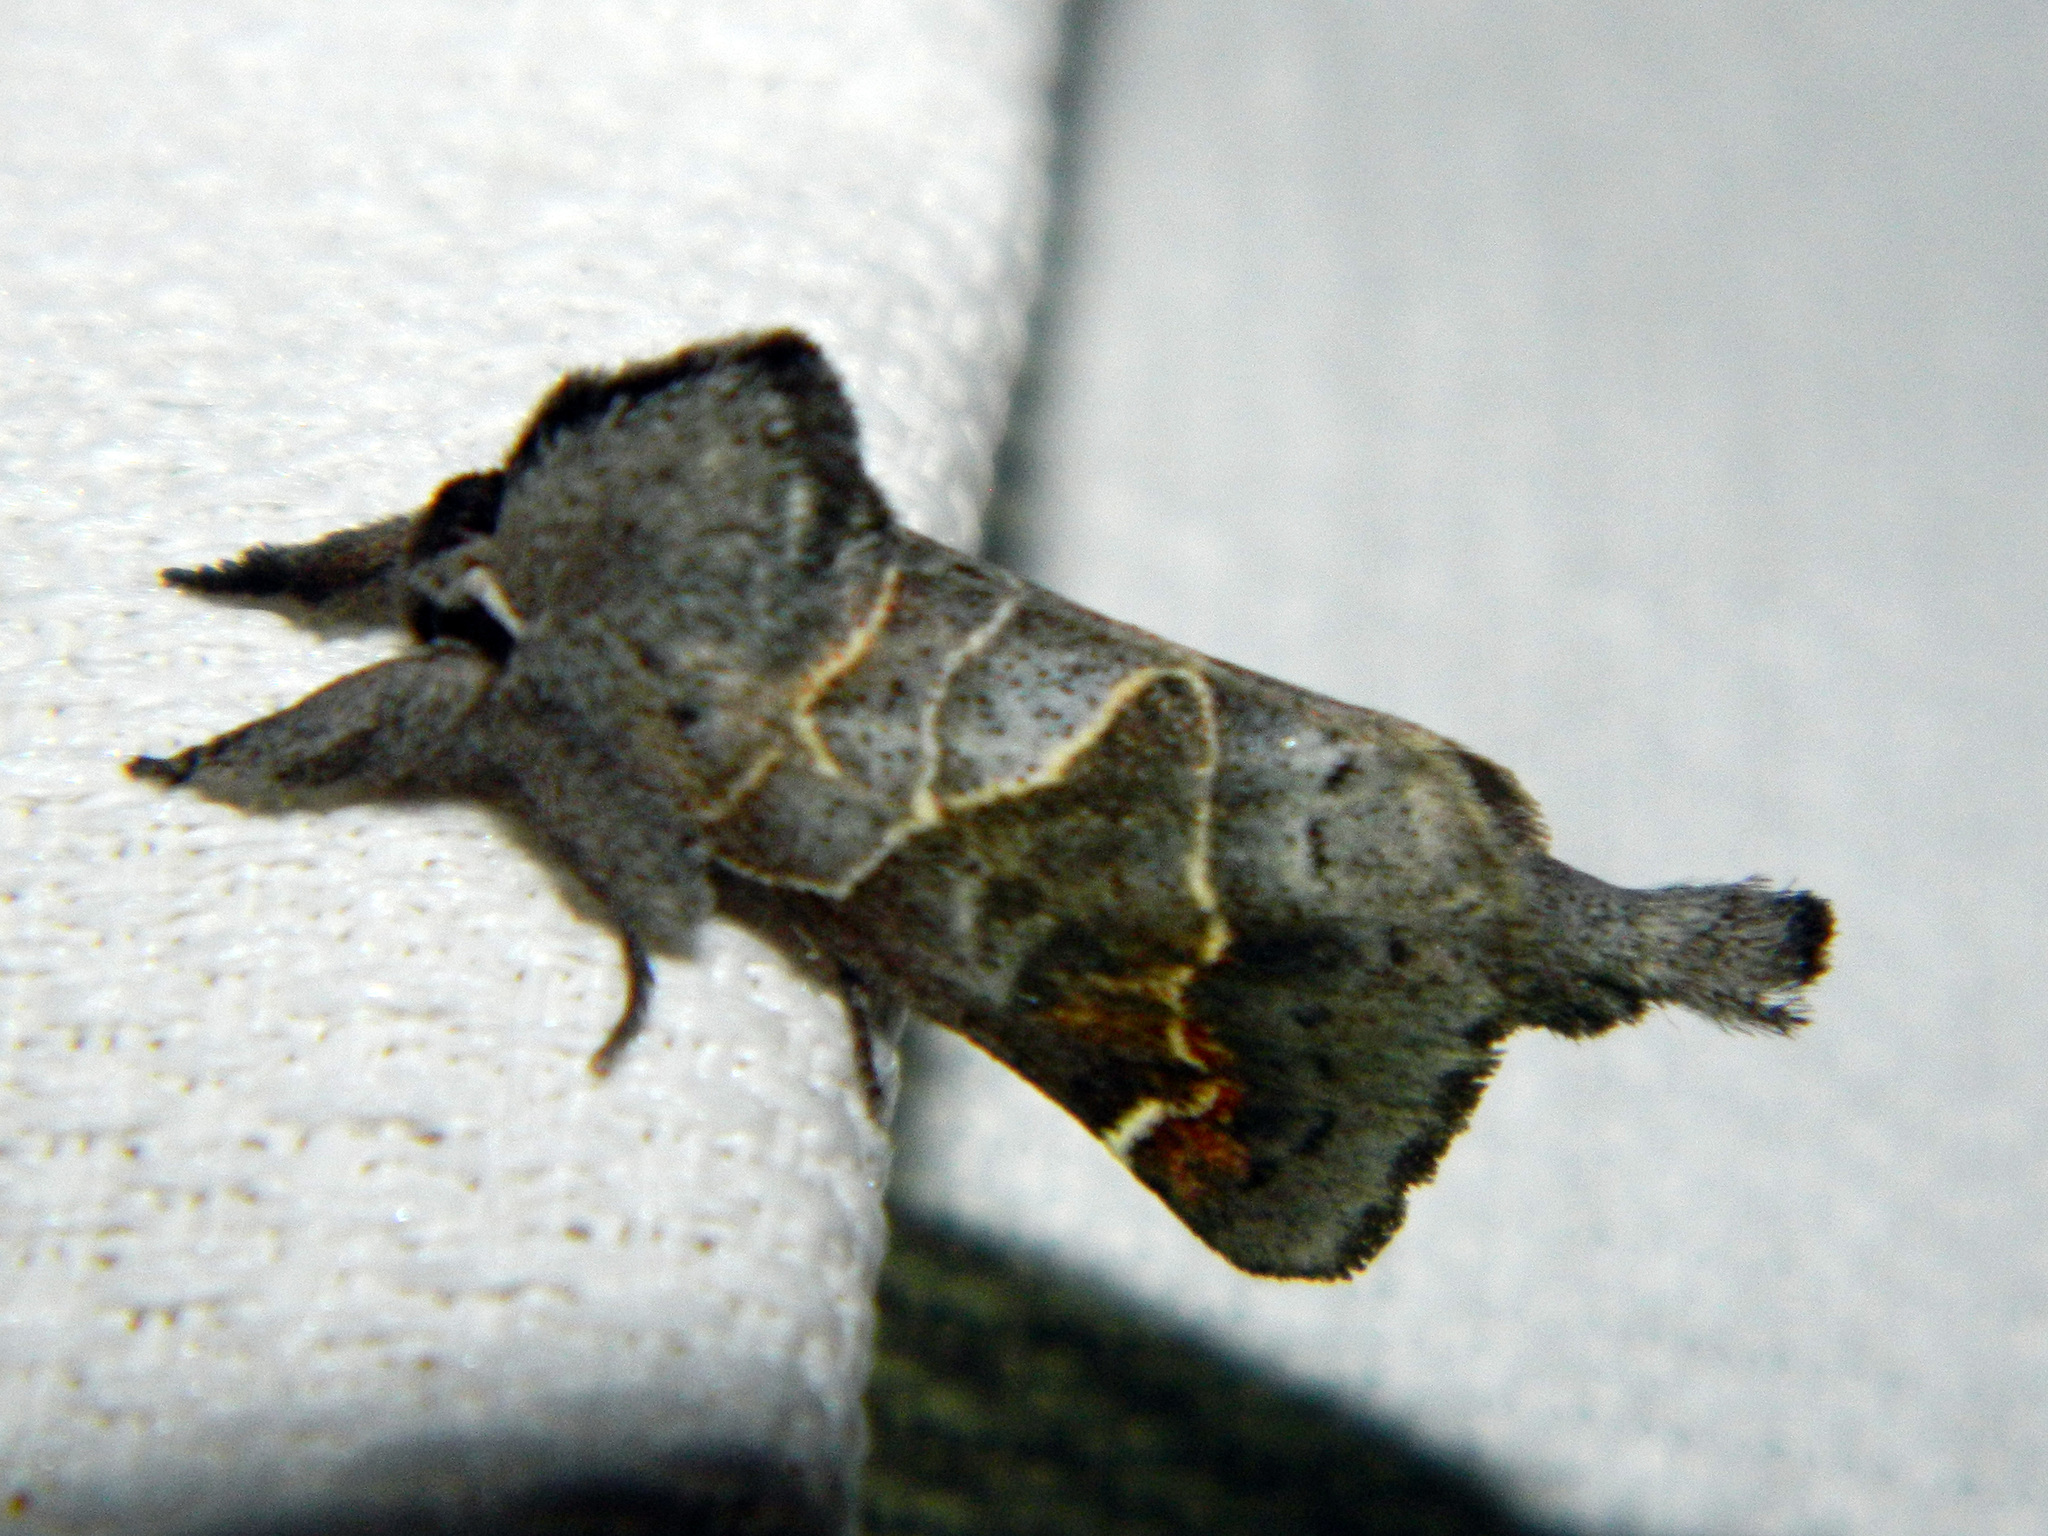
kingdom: Animalia
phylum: Arthropoda
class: Insecta
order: Lepidoptera
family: Notodontidae
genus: Clostera
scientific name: Clostera apicalis
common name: Apical prominent
